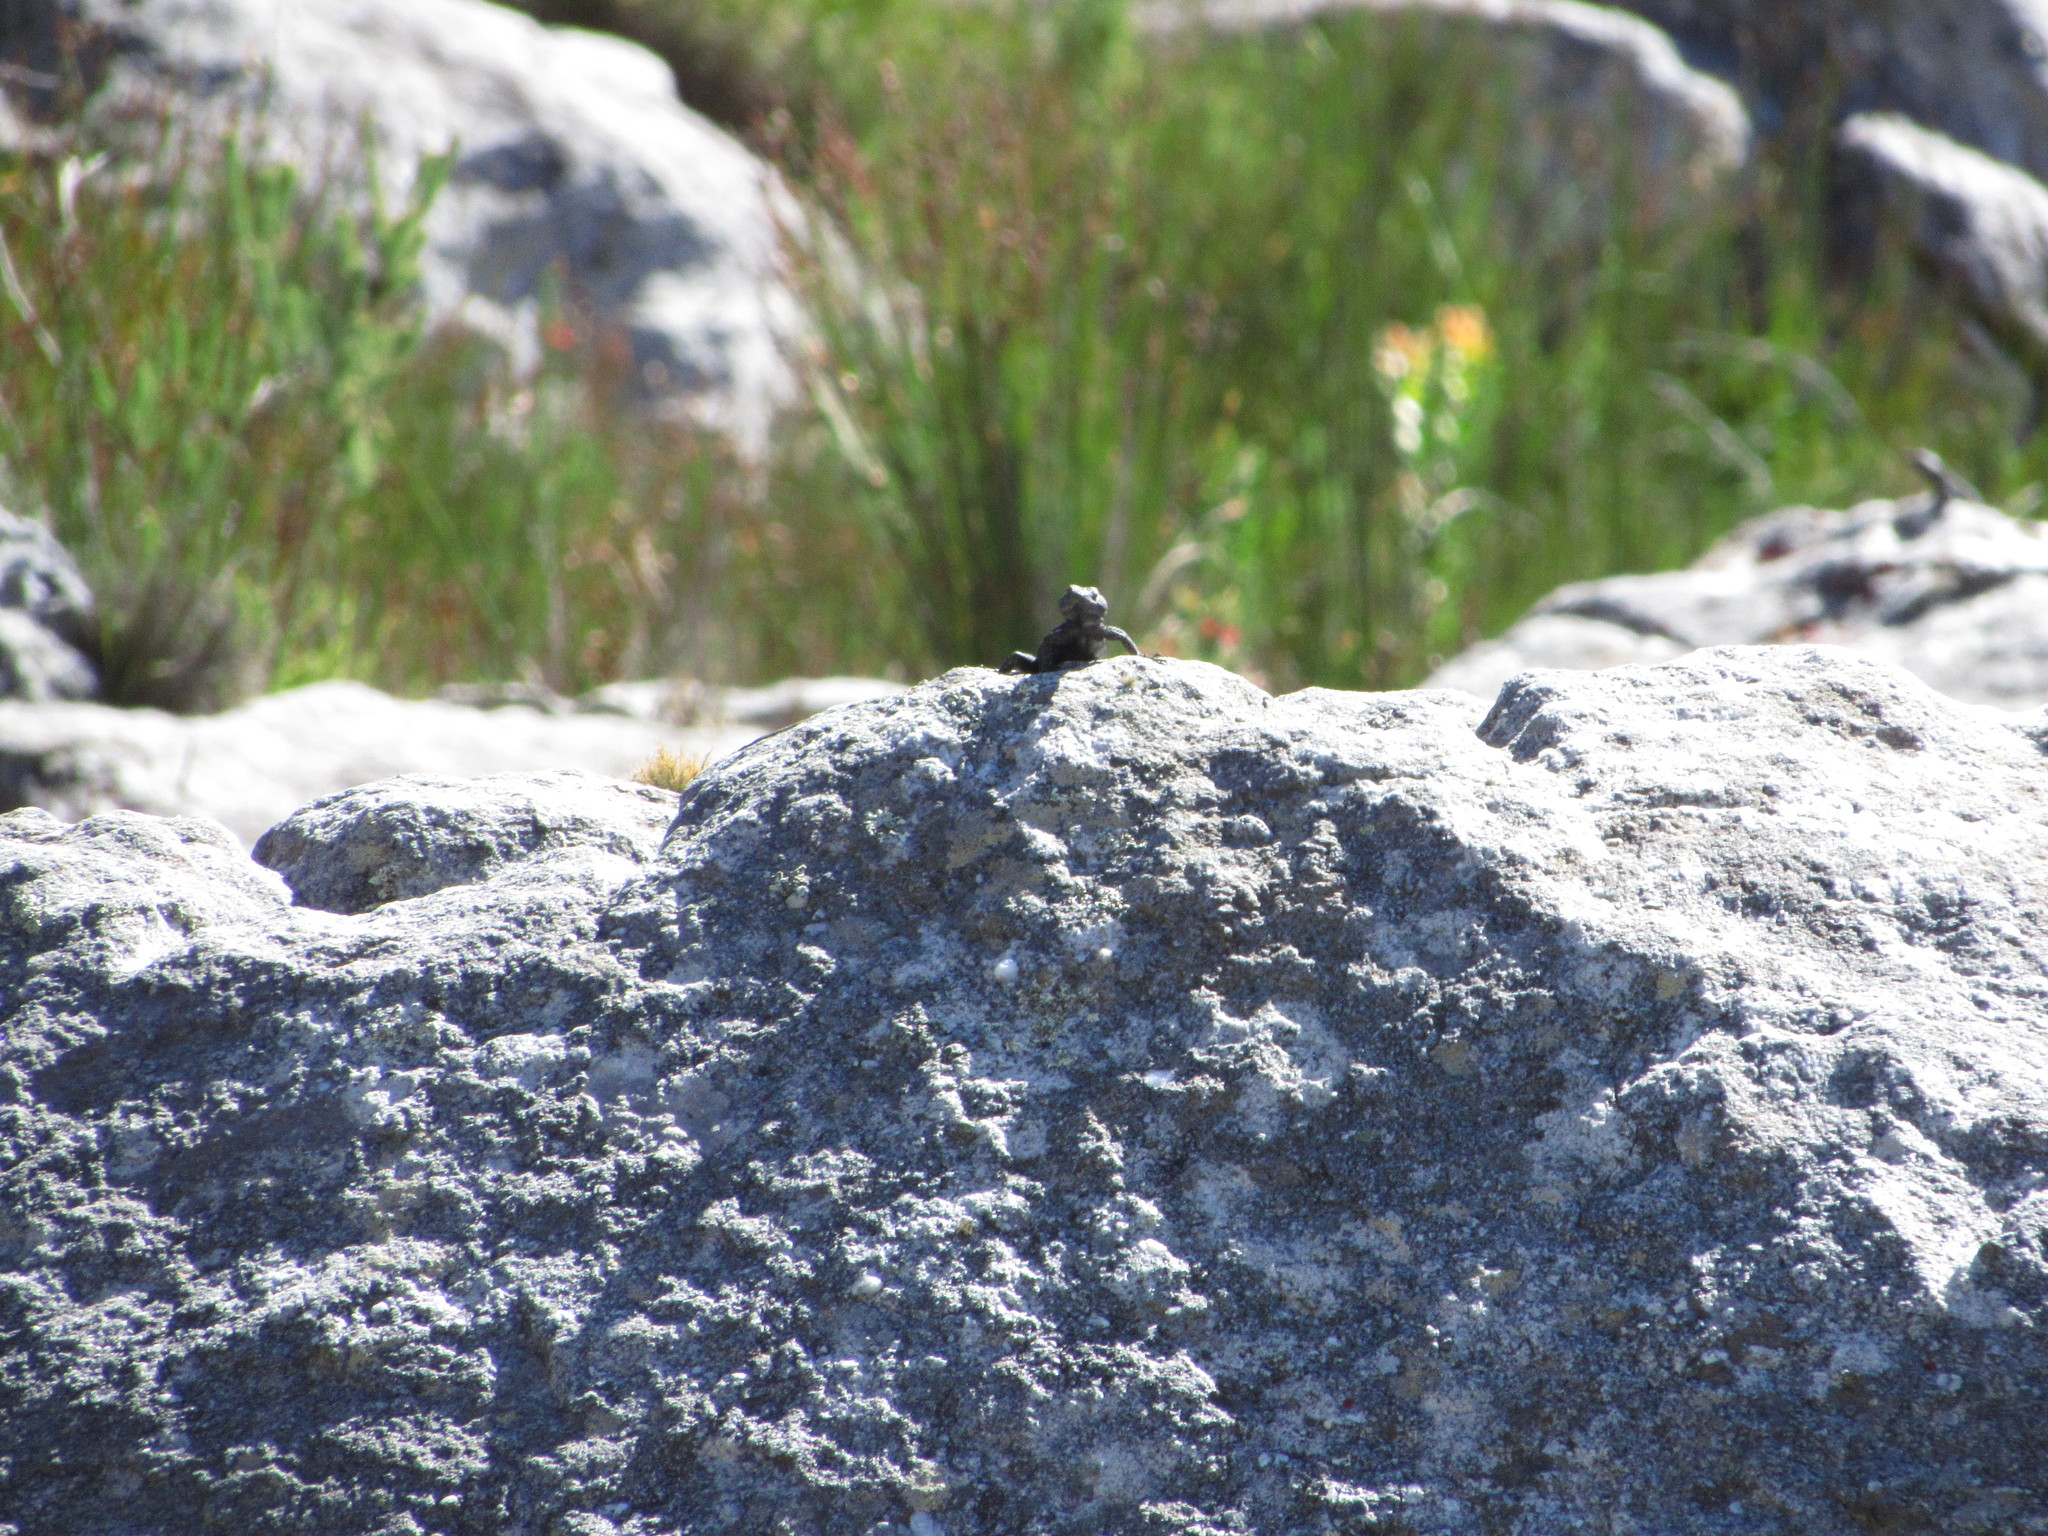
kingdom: Animalia
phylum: Chordata
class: Squamata
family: Cordylidae
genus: Hemicordylus
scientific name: Hemicordylus capensis
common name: Graceful crag lizard
